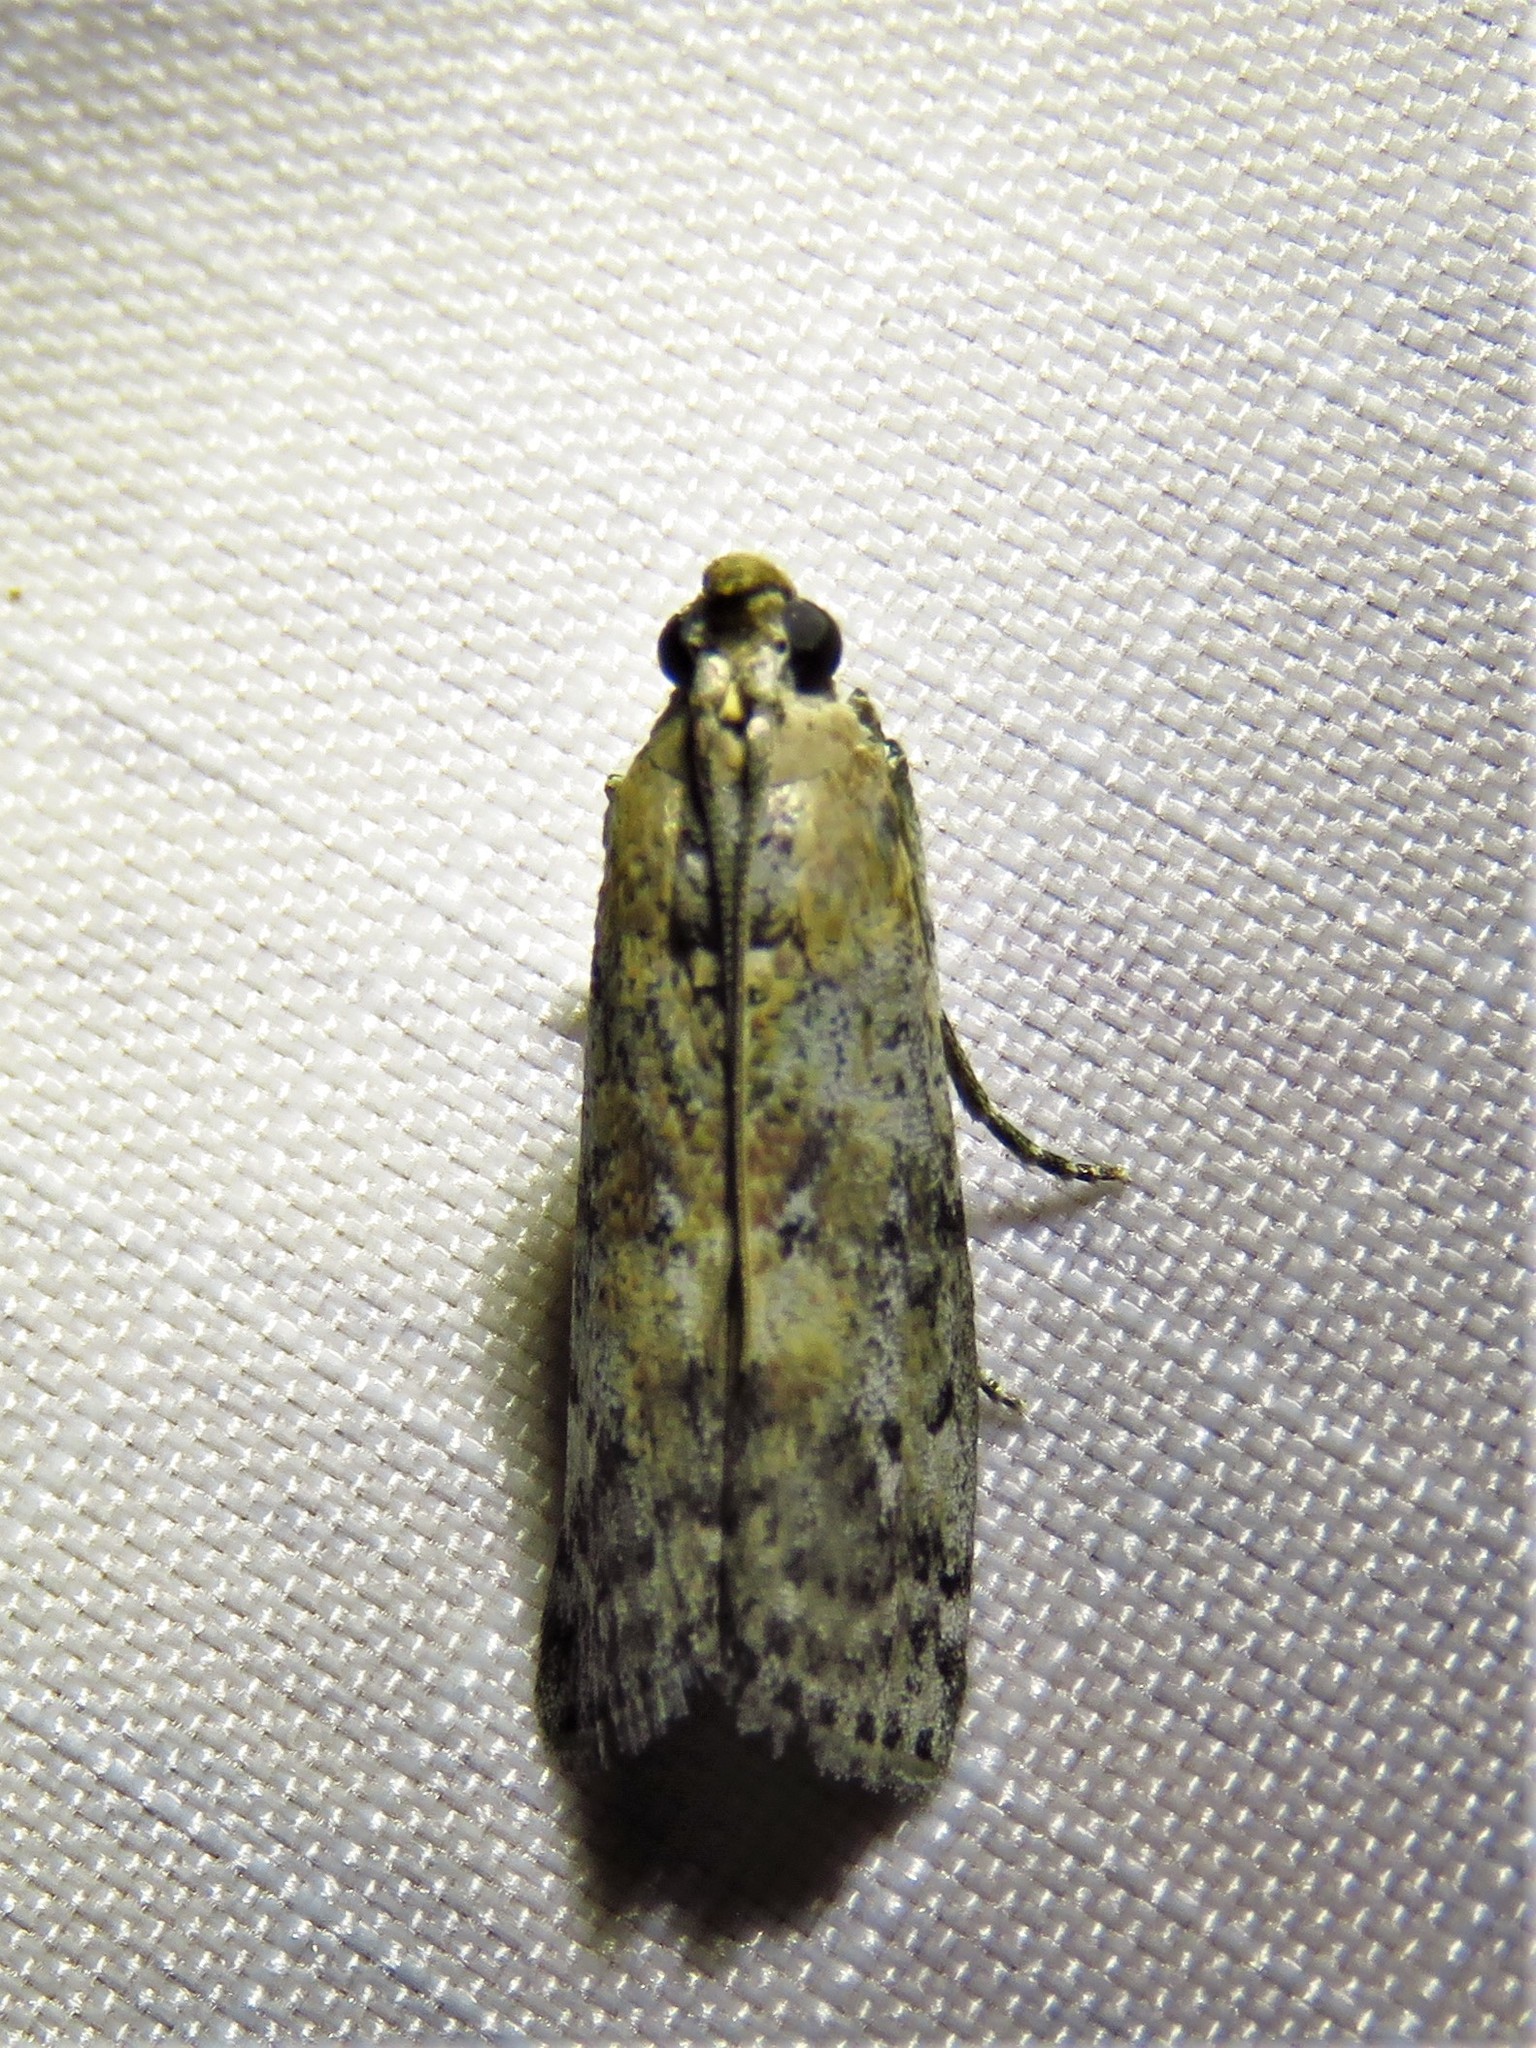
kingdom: Animalia
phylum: Arthropoda
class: Insecta
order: Lepidoptera
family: Pyralidae
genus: Sciota
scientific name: Sciota celtidella
